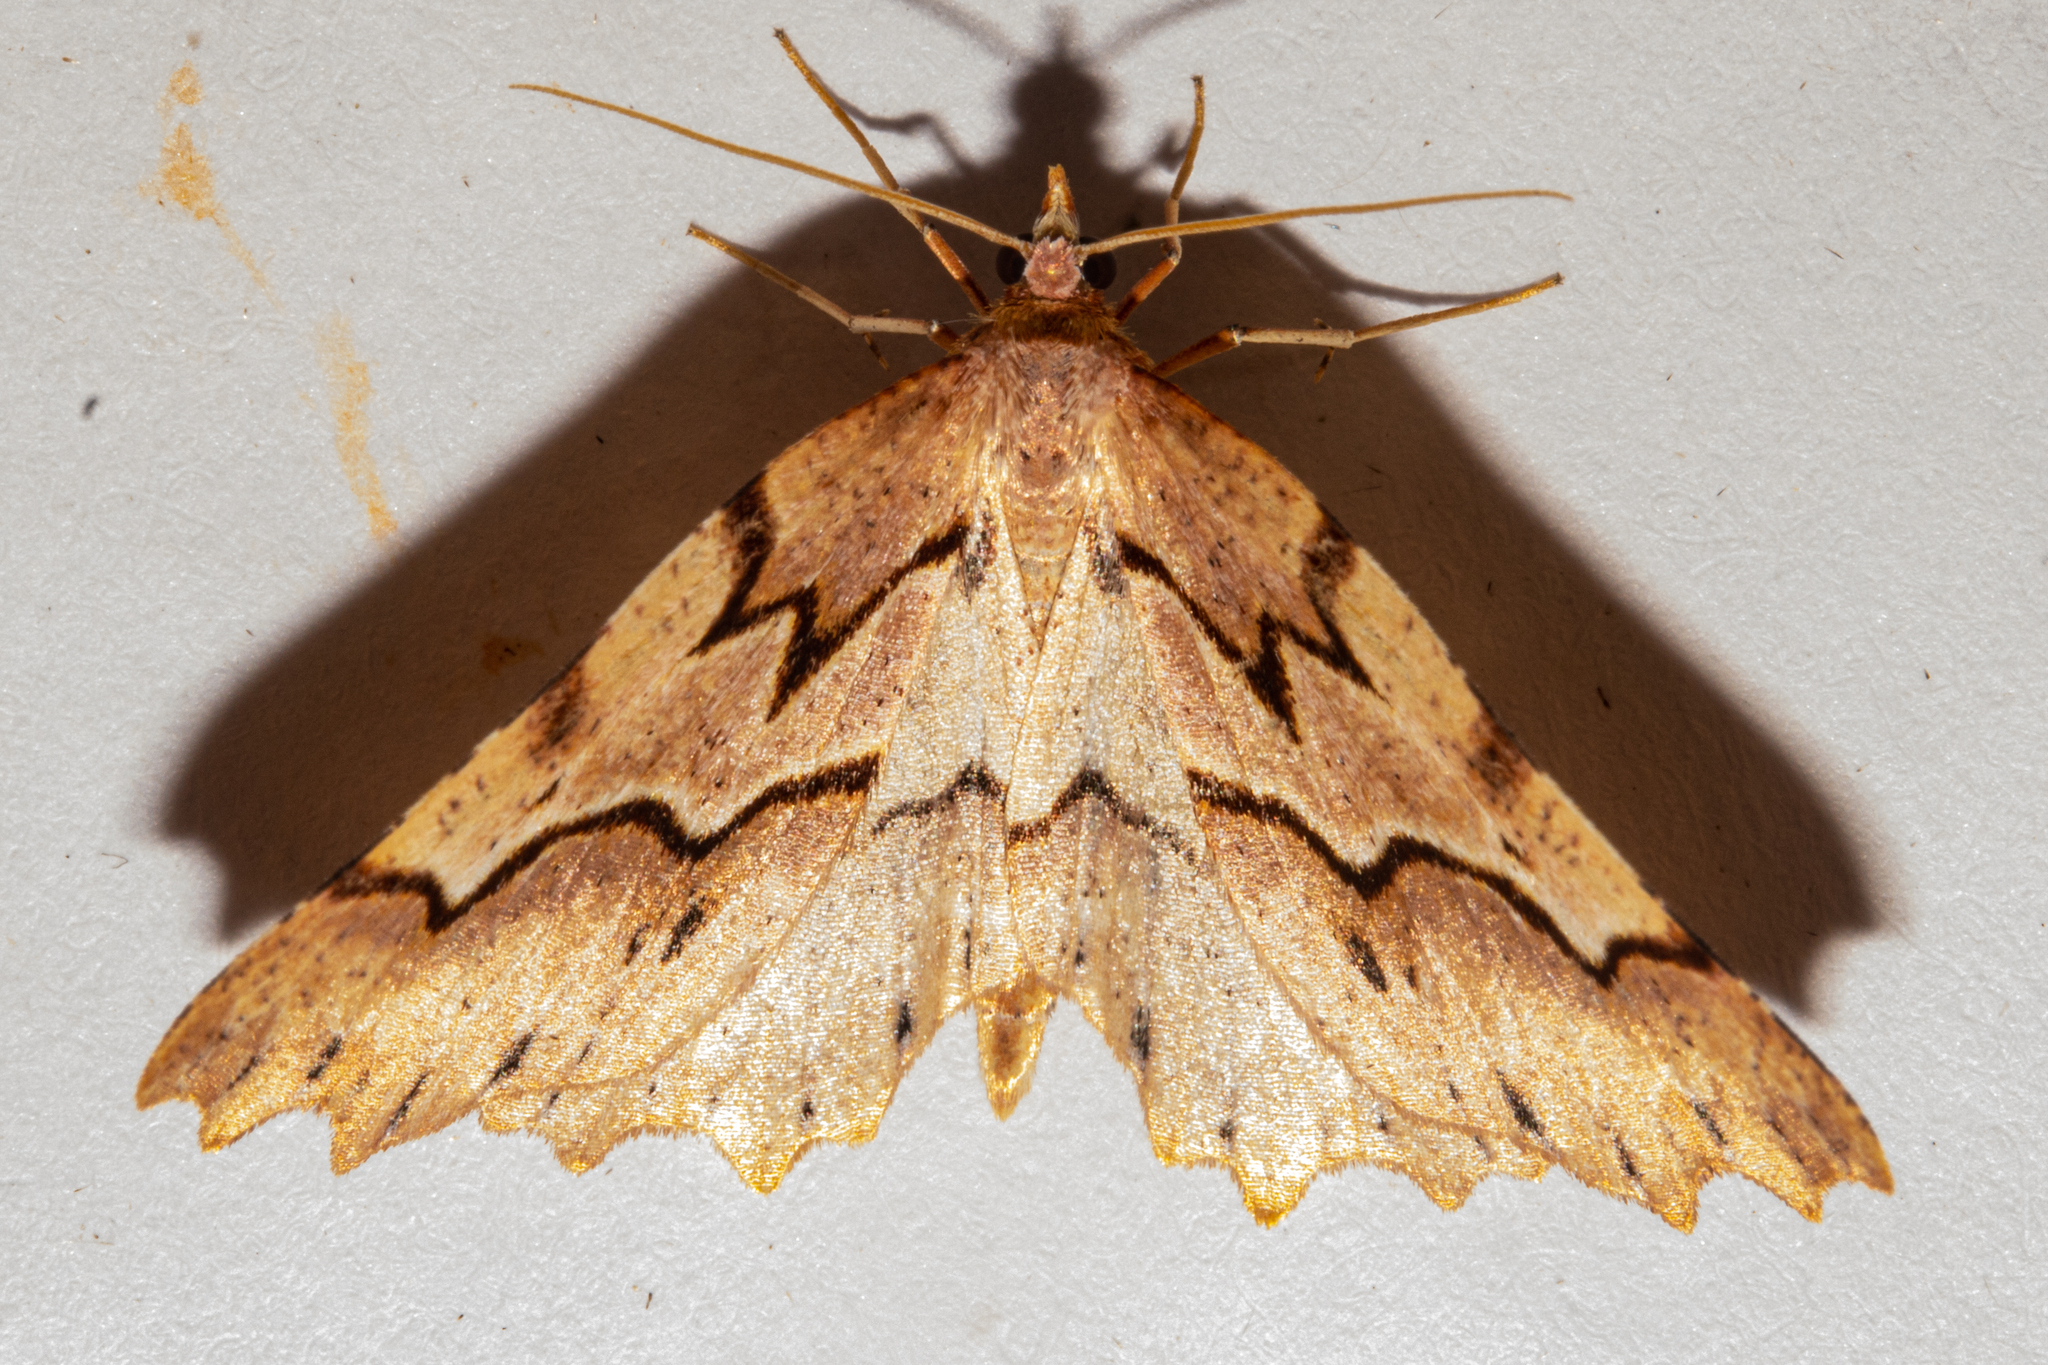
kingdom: Animalia
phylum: Arthropoda
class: Insecta
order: Lepidoptera
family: Geometridae
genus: Ischalis
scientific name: Ischalis fortinata
